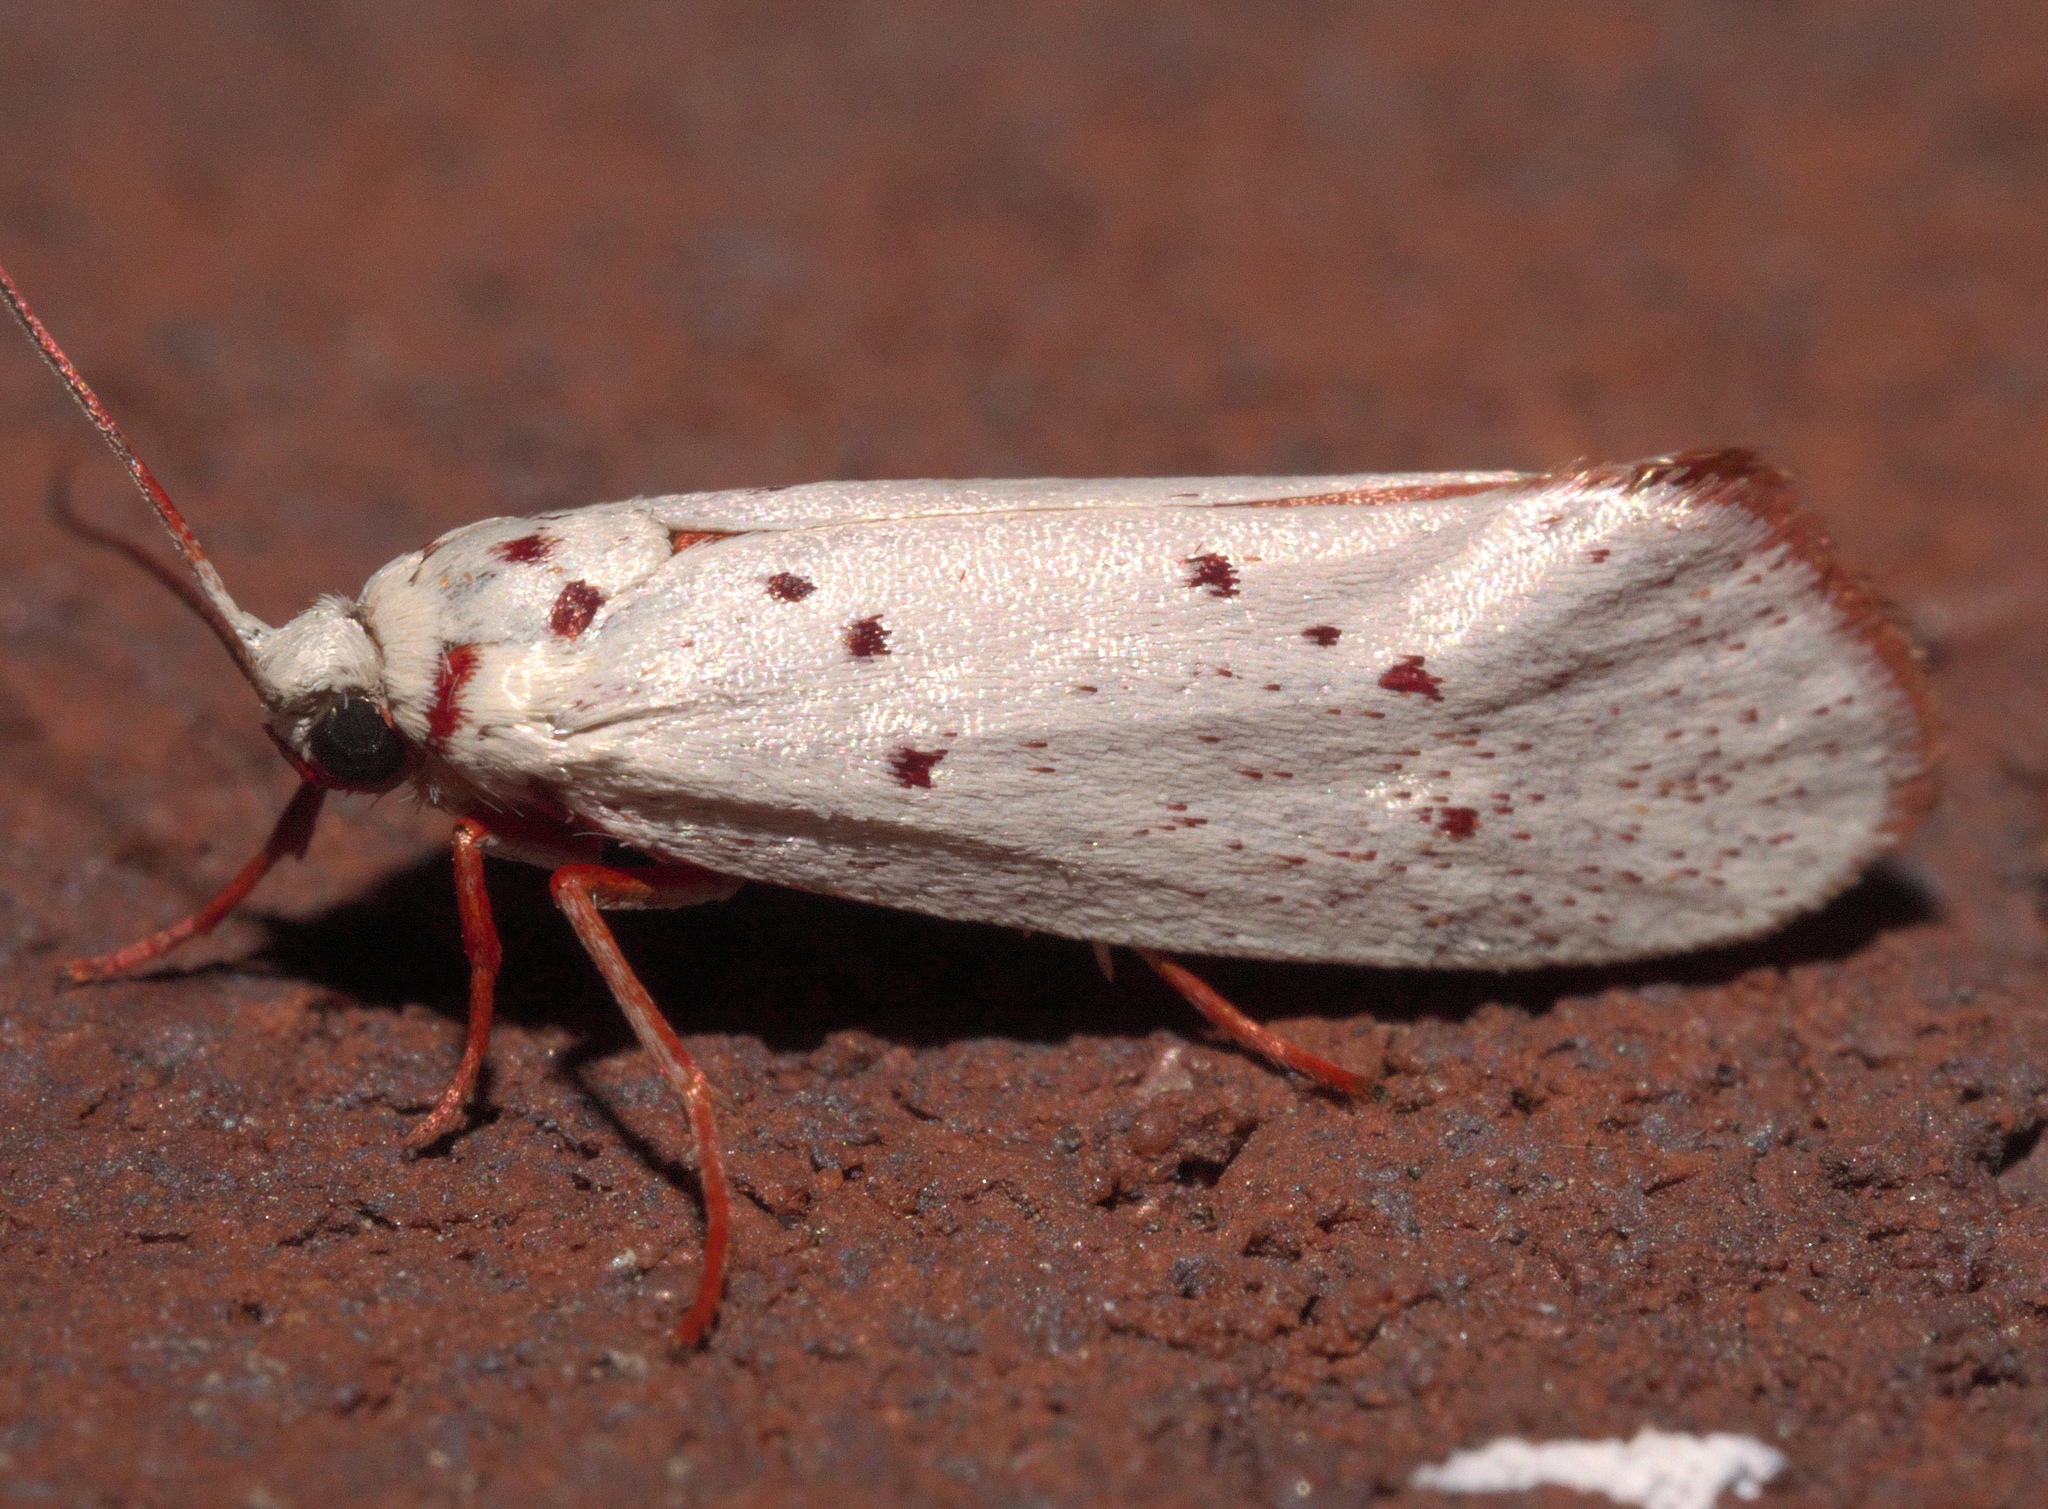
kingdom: Animalia
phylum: Arthropoda
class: Insecta
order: Lepidoptera
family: Lacturidae
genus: Lactura
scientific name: Lactura
